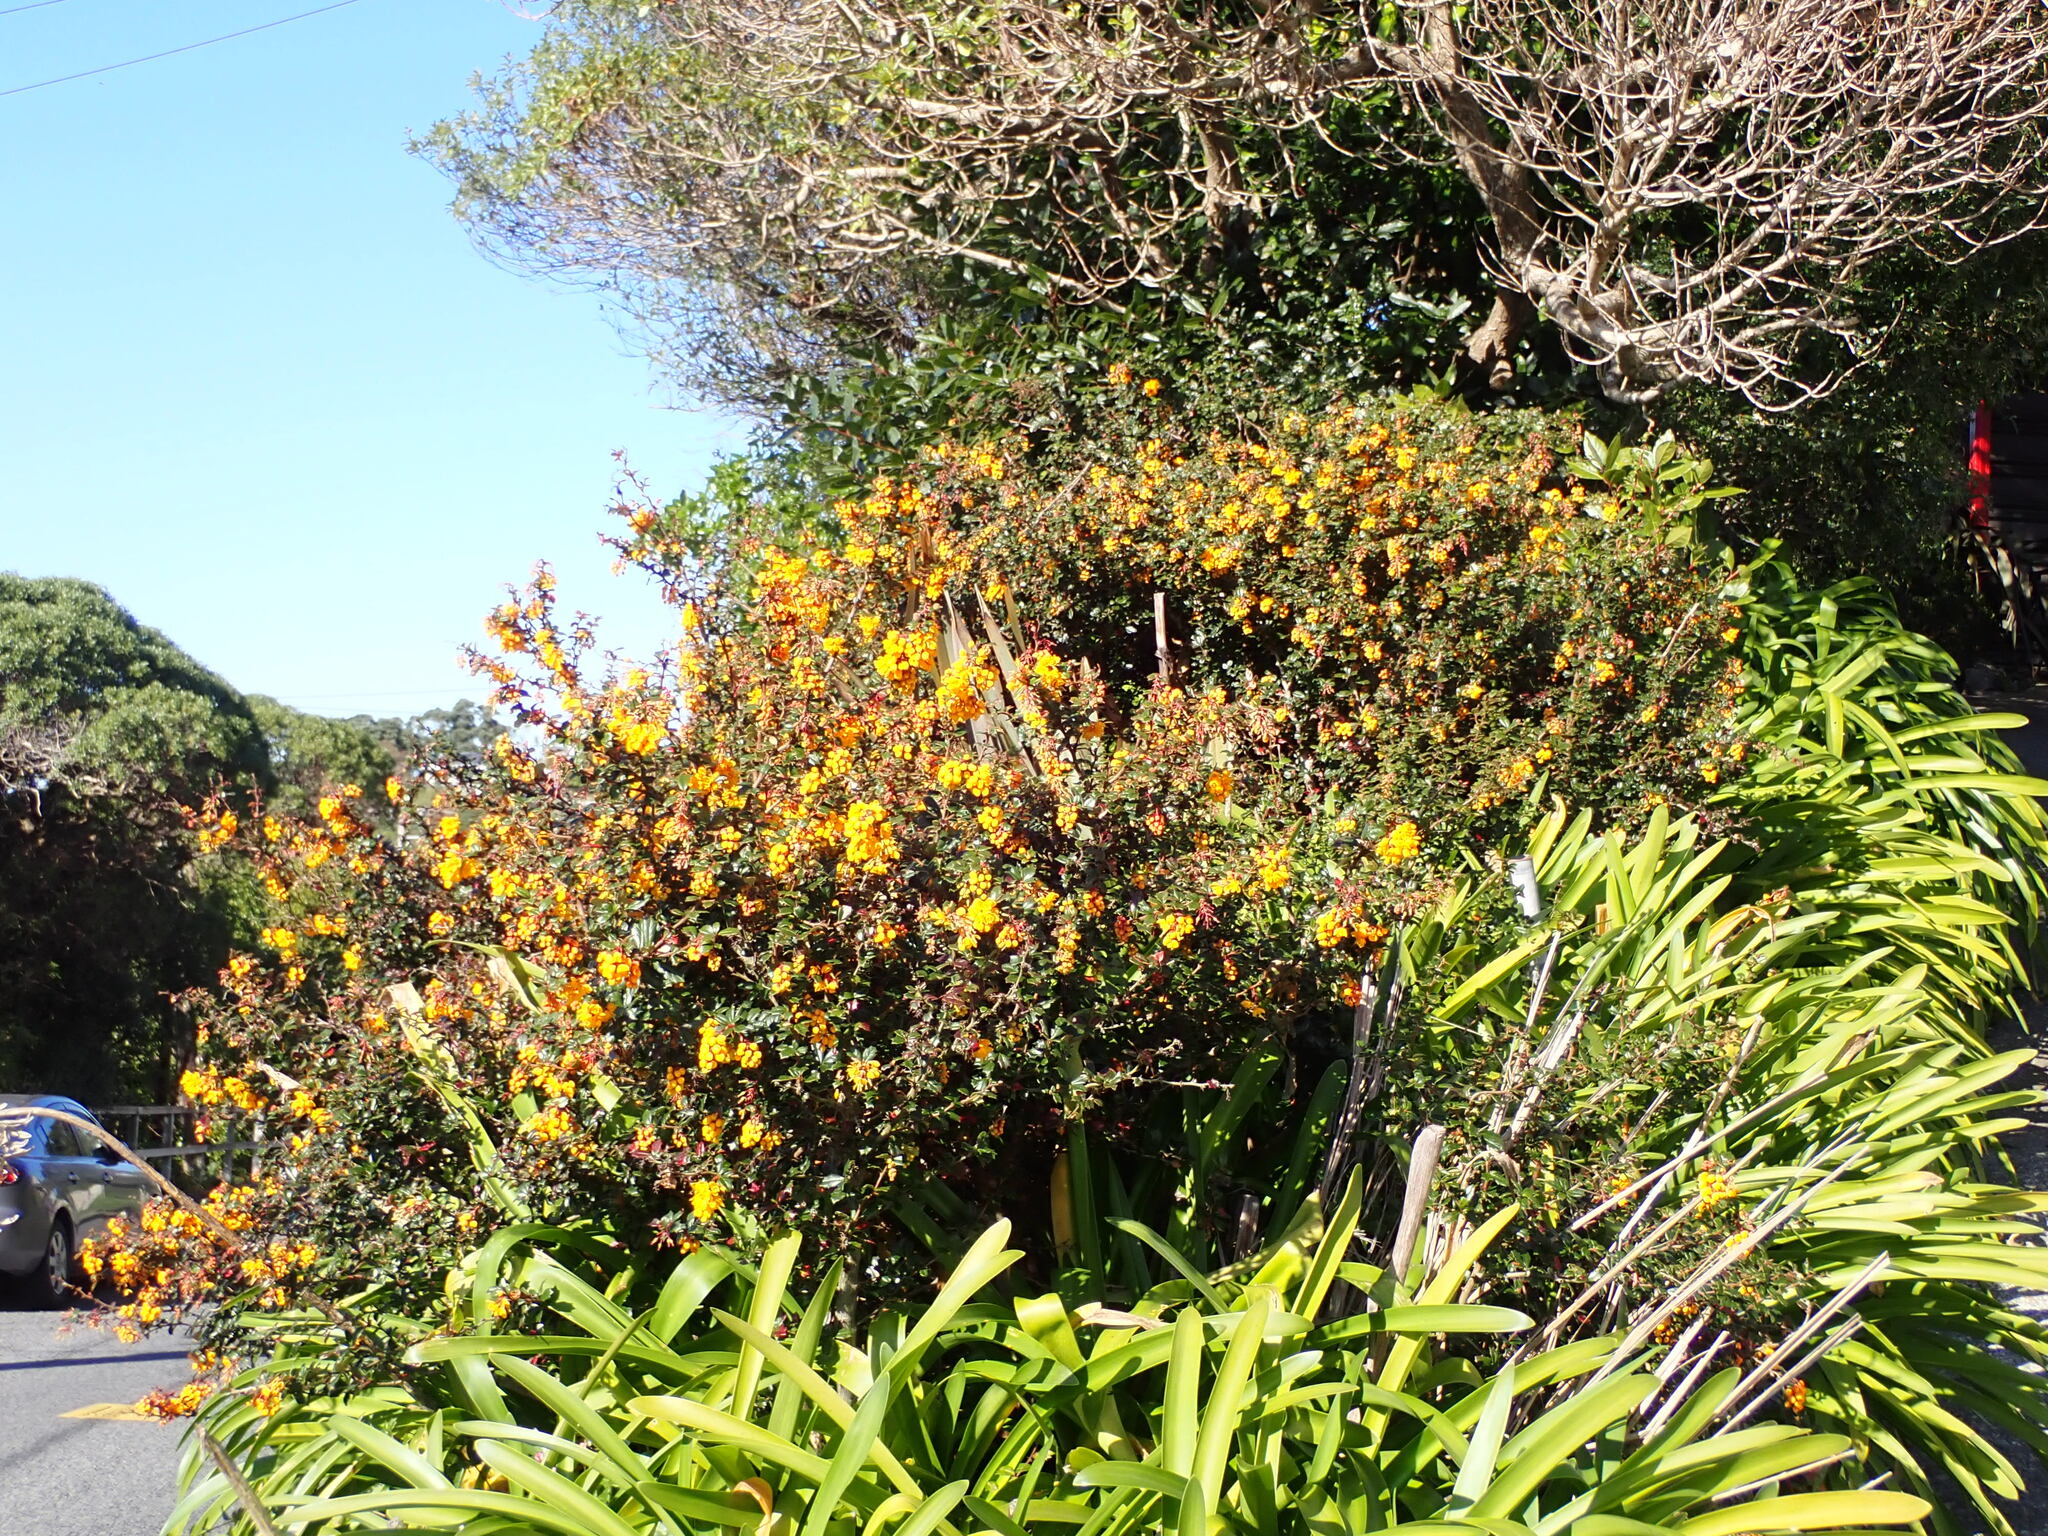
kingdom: Plantae
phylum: Tracheophyta
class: Magnoliopsida
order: Ranunculales
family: Berberidaceae
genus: Berberis
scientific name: Berberis darwinii
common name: Darwin's barberry
